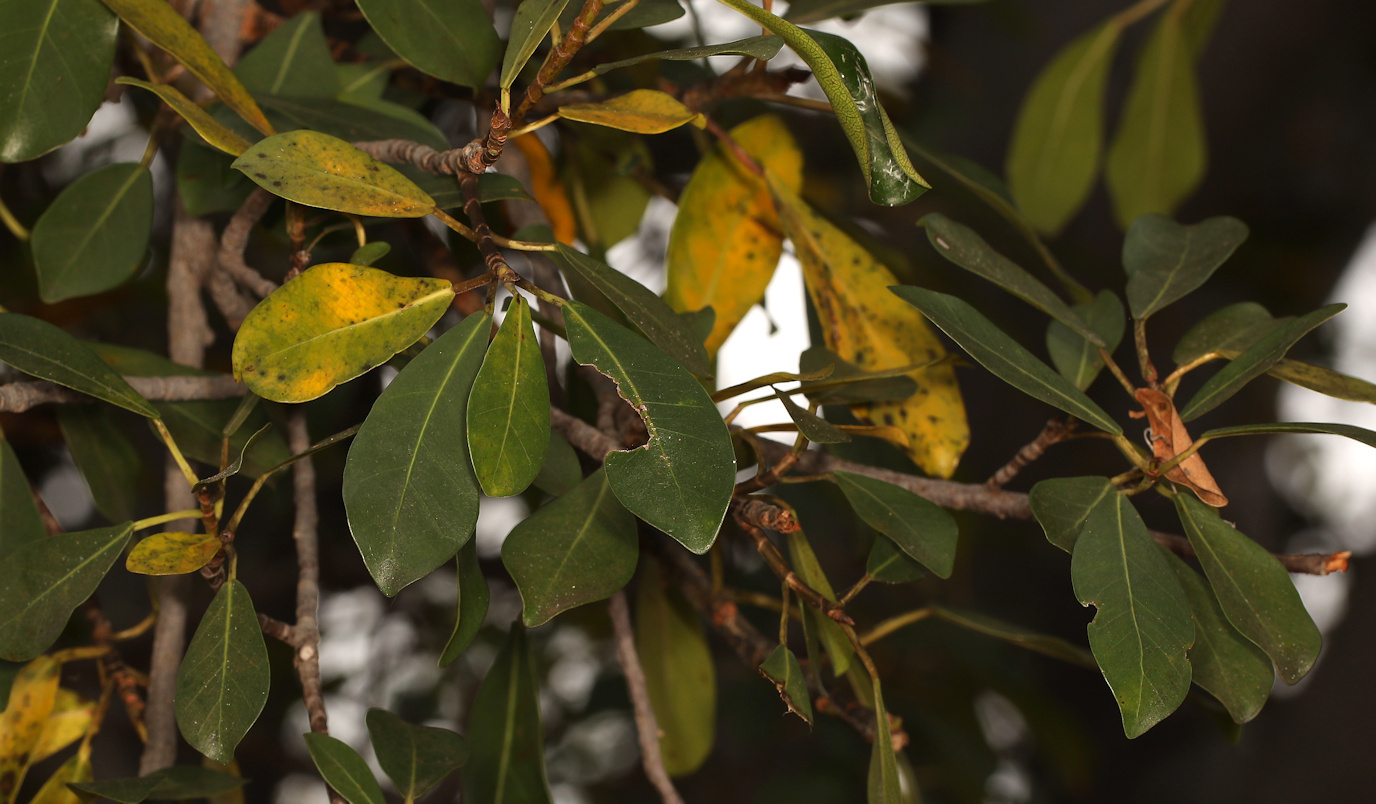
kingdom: Plantae
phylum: Tracheophyta
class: Magnoliopsida
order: Rosales
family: Moraceae
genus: Ficus
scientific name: Ficus thonningii
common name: Fig
